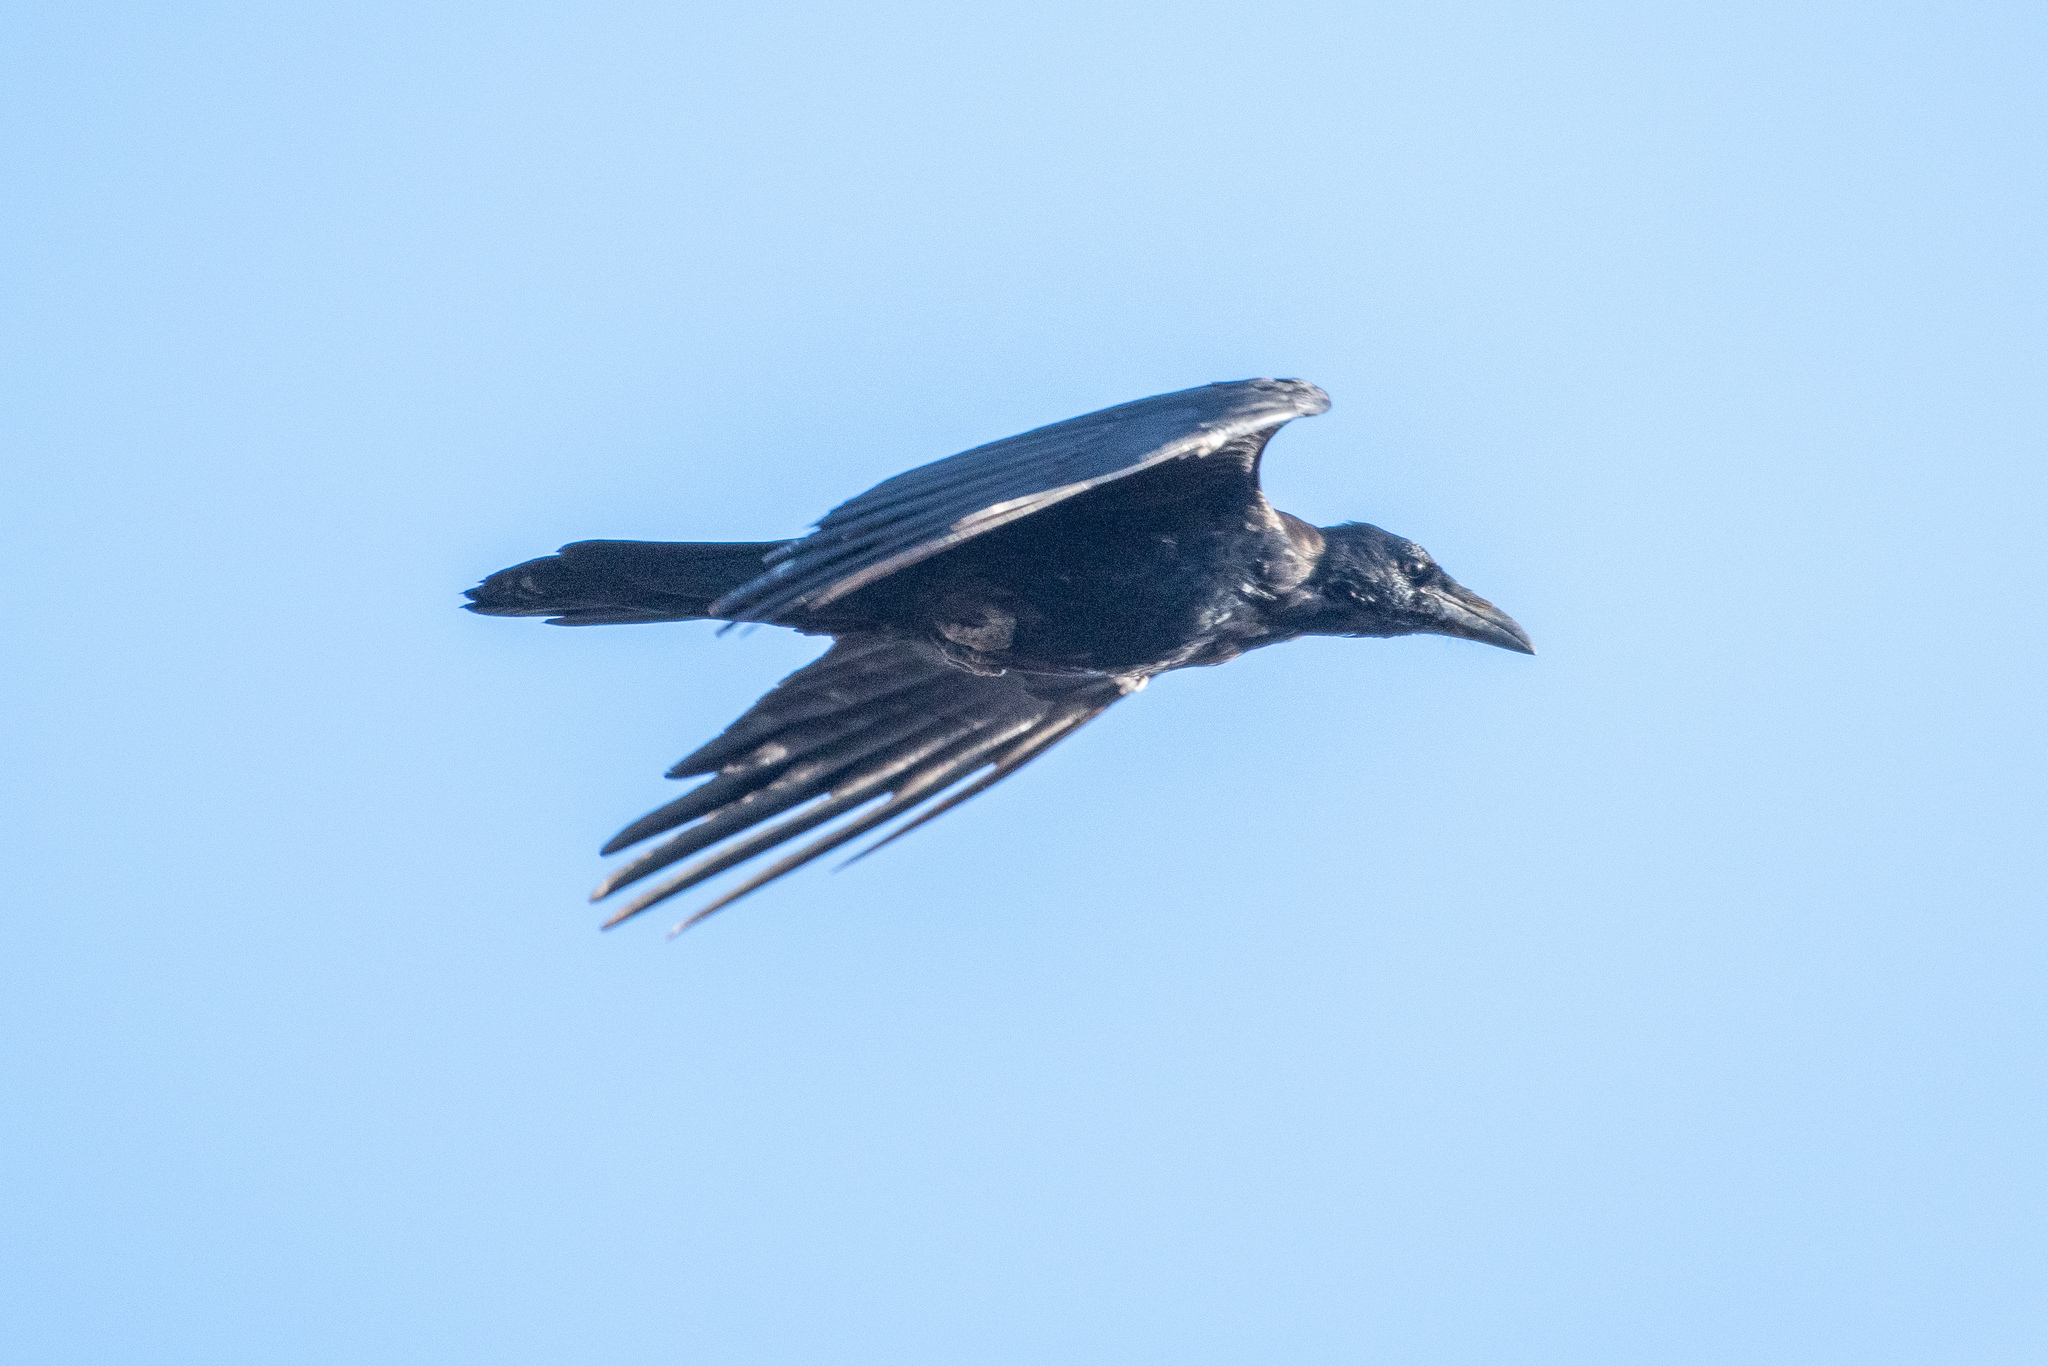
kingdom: Animalia
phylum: Chordata
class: Aves
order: Passeriformes
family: Corvidae
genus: Corvus
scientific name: Corvus corax
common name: Common raven
